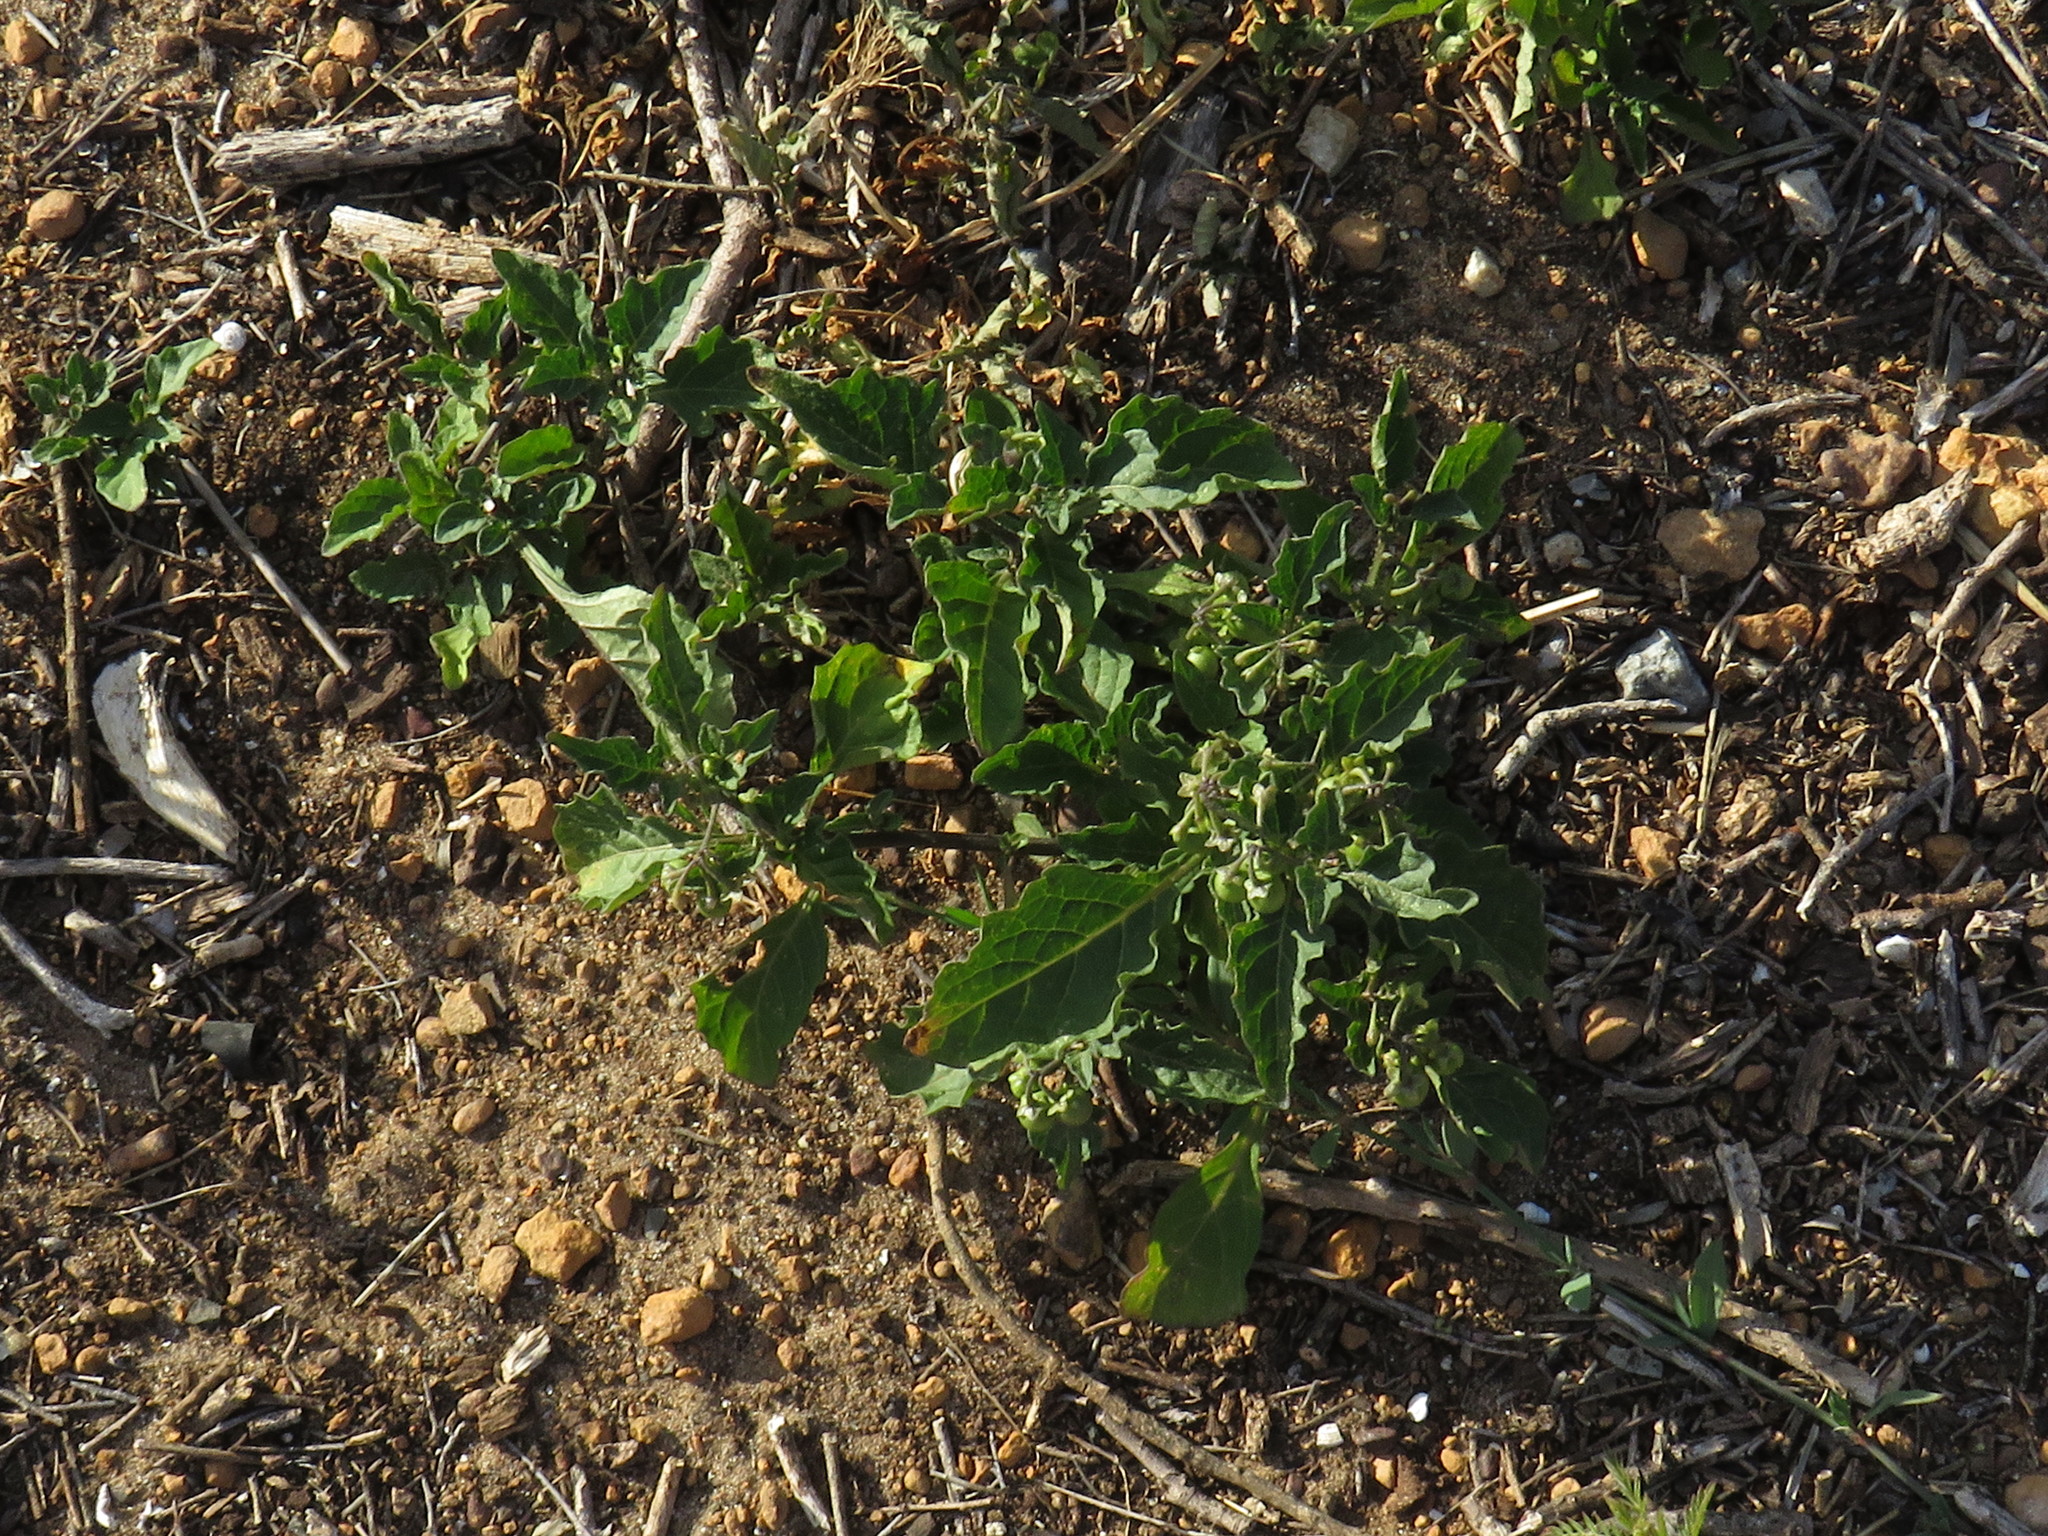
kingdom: Plantae
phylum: Tracheophyta
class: Magnoliopsida
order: Solanales
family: Solanaceae
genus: Solanum
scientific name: Solanum nigrum
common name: Black nightshade
